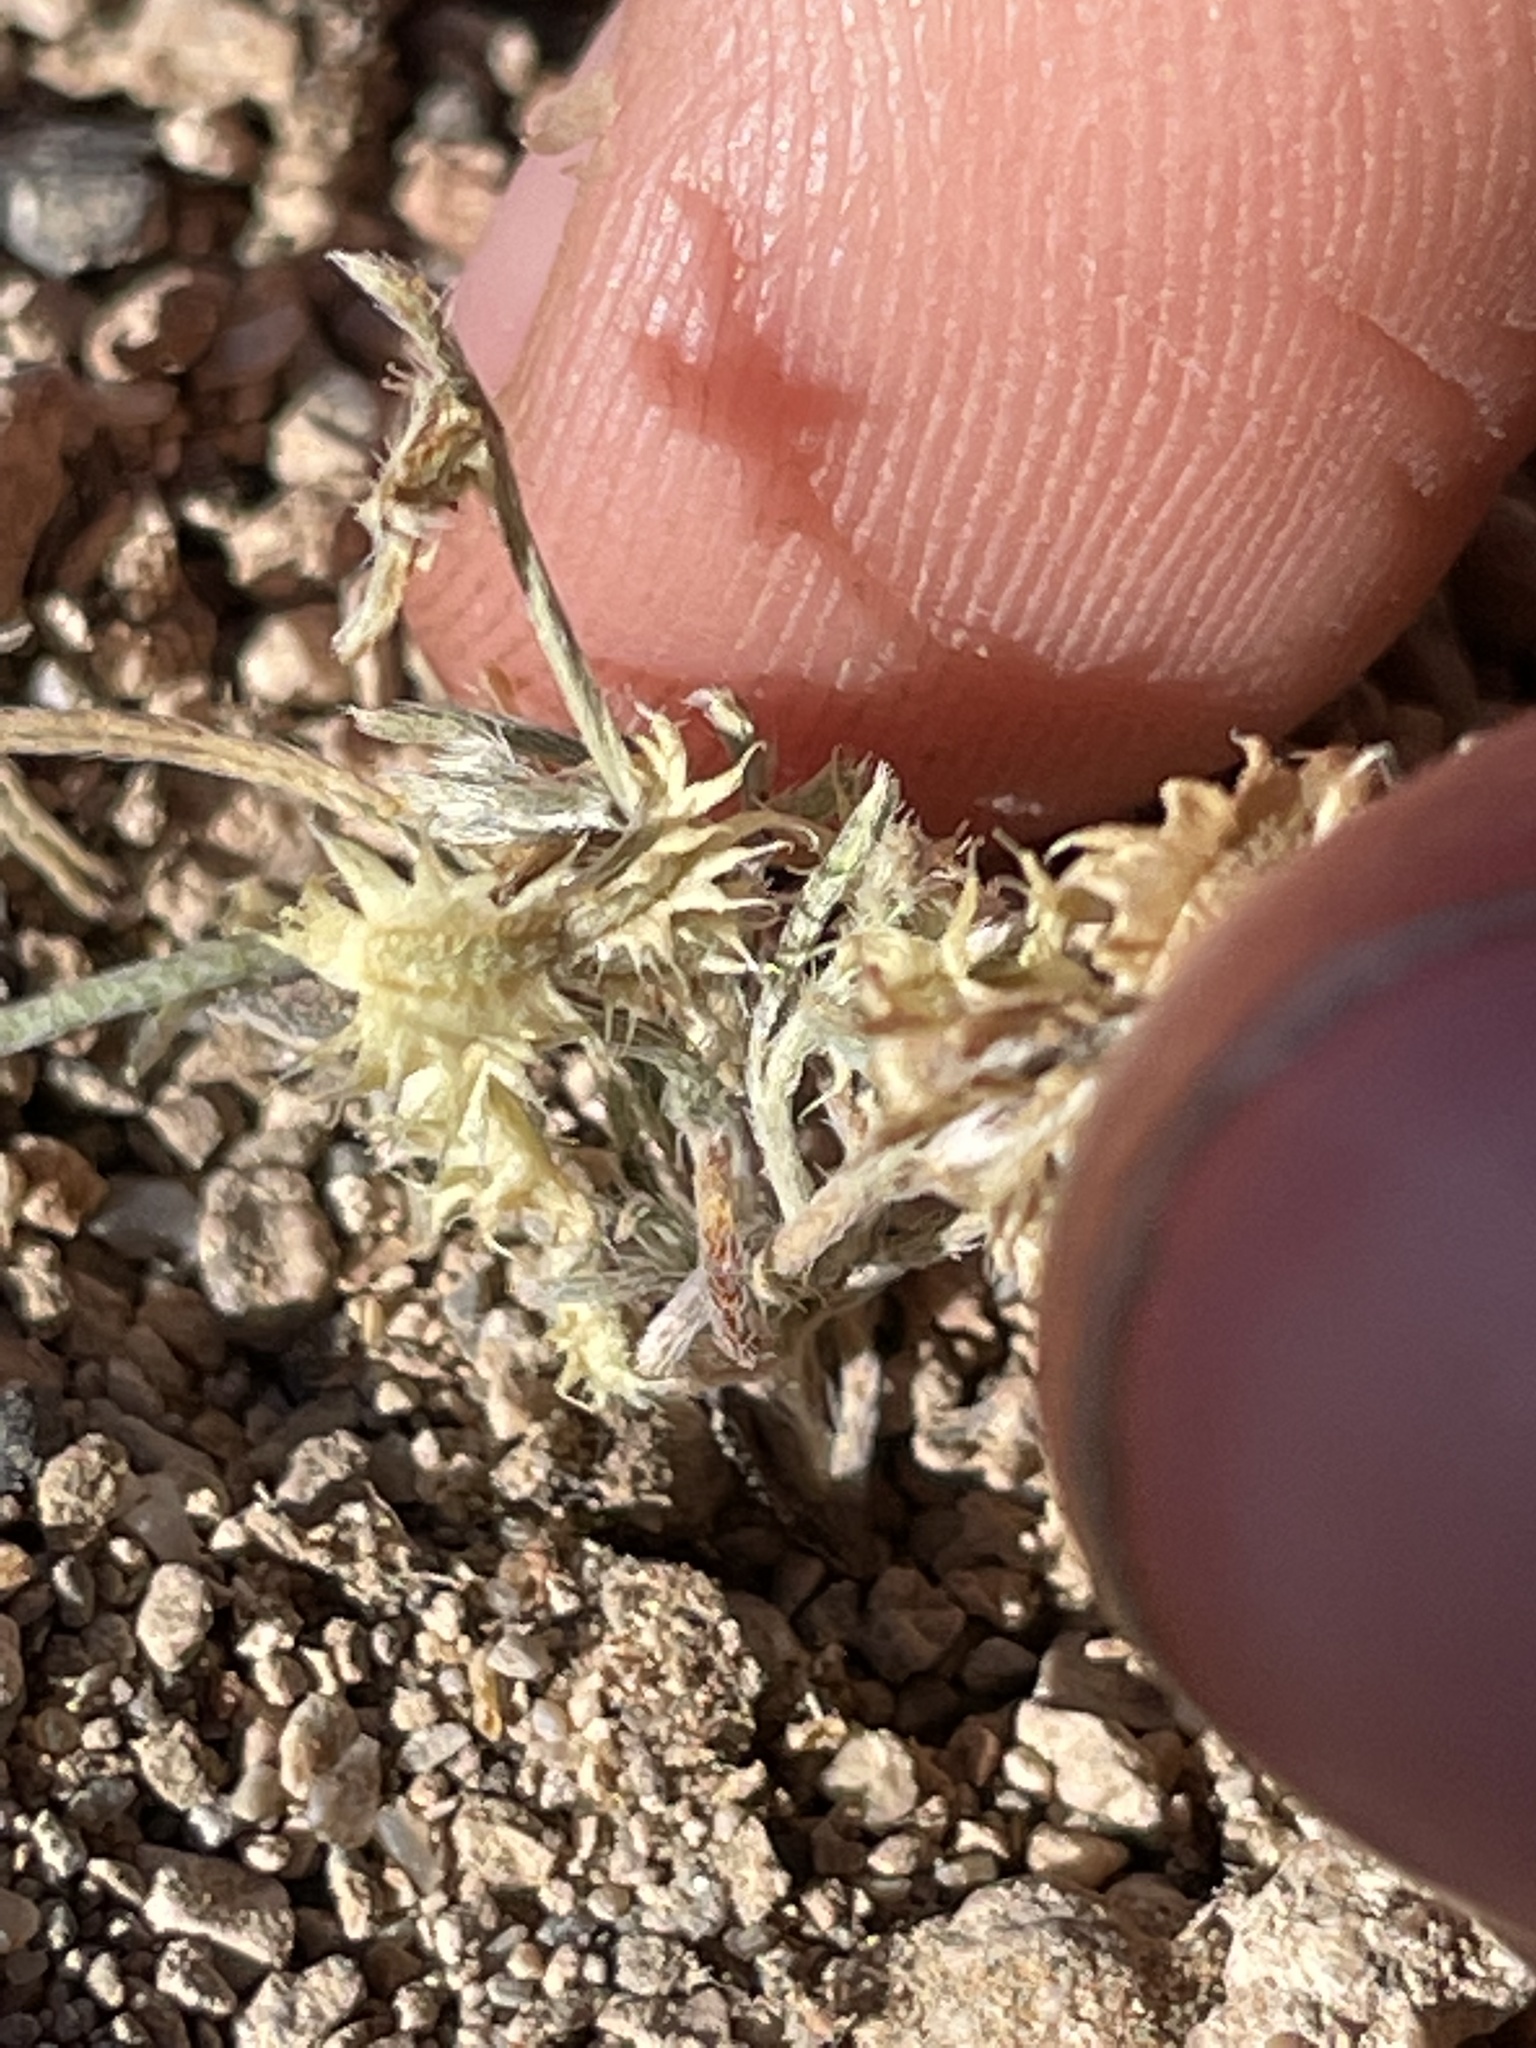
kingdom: Plantae
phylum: Tracheophyta
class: Magnoliopsida
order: Boraginales
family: Boraginaceae
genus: Pectocarya
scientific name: Pectocarya platycarpa
